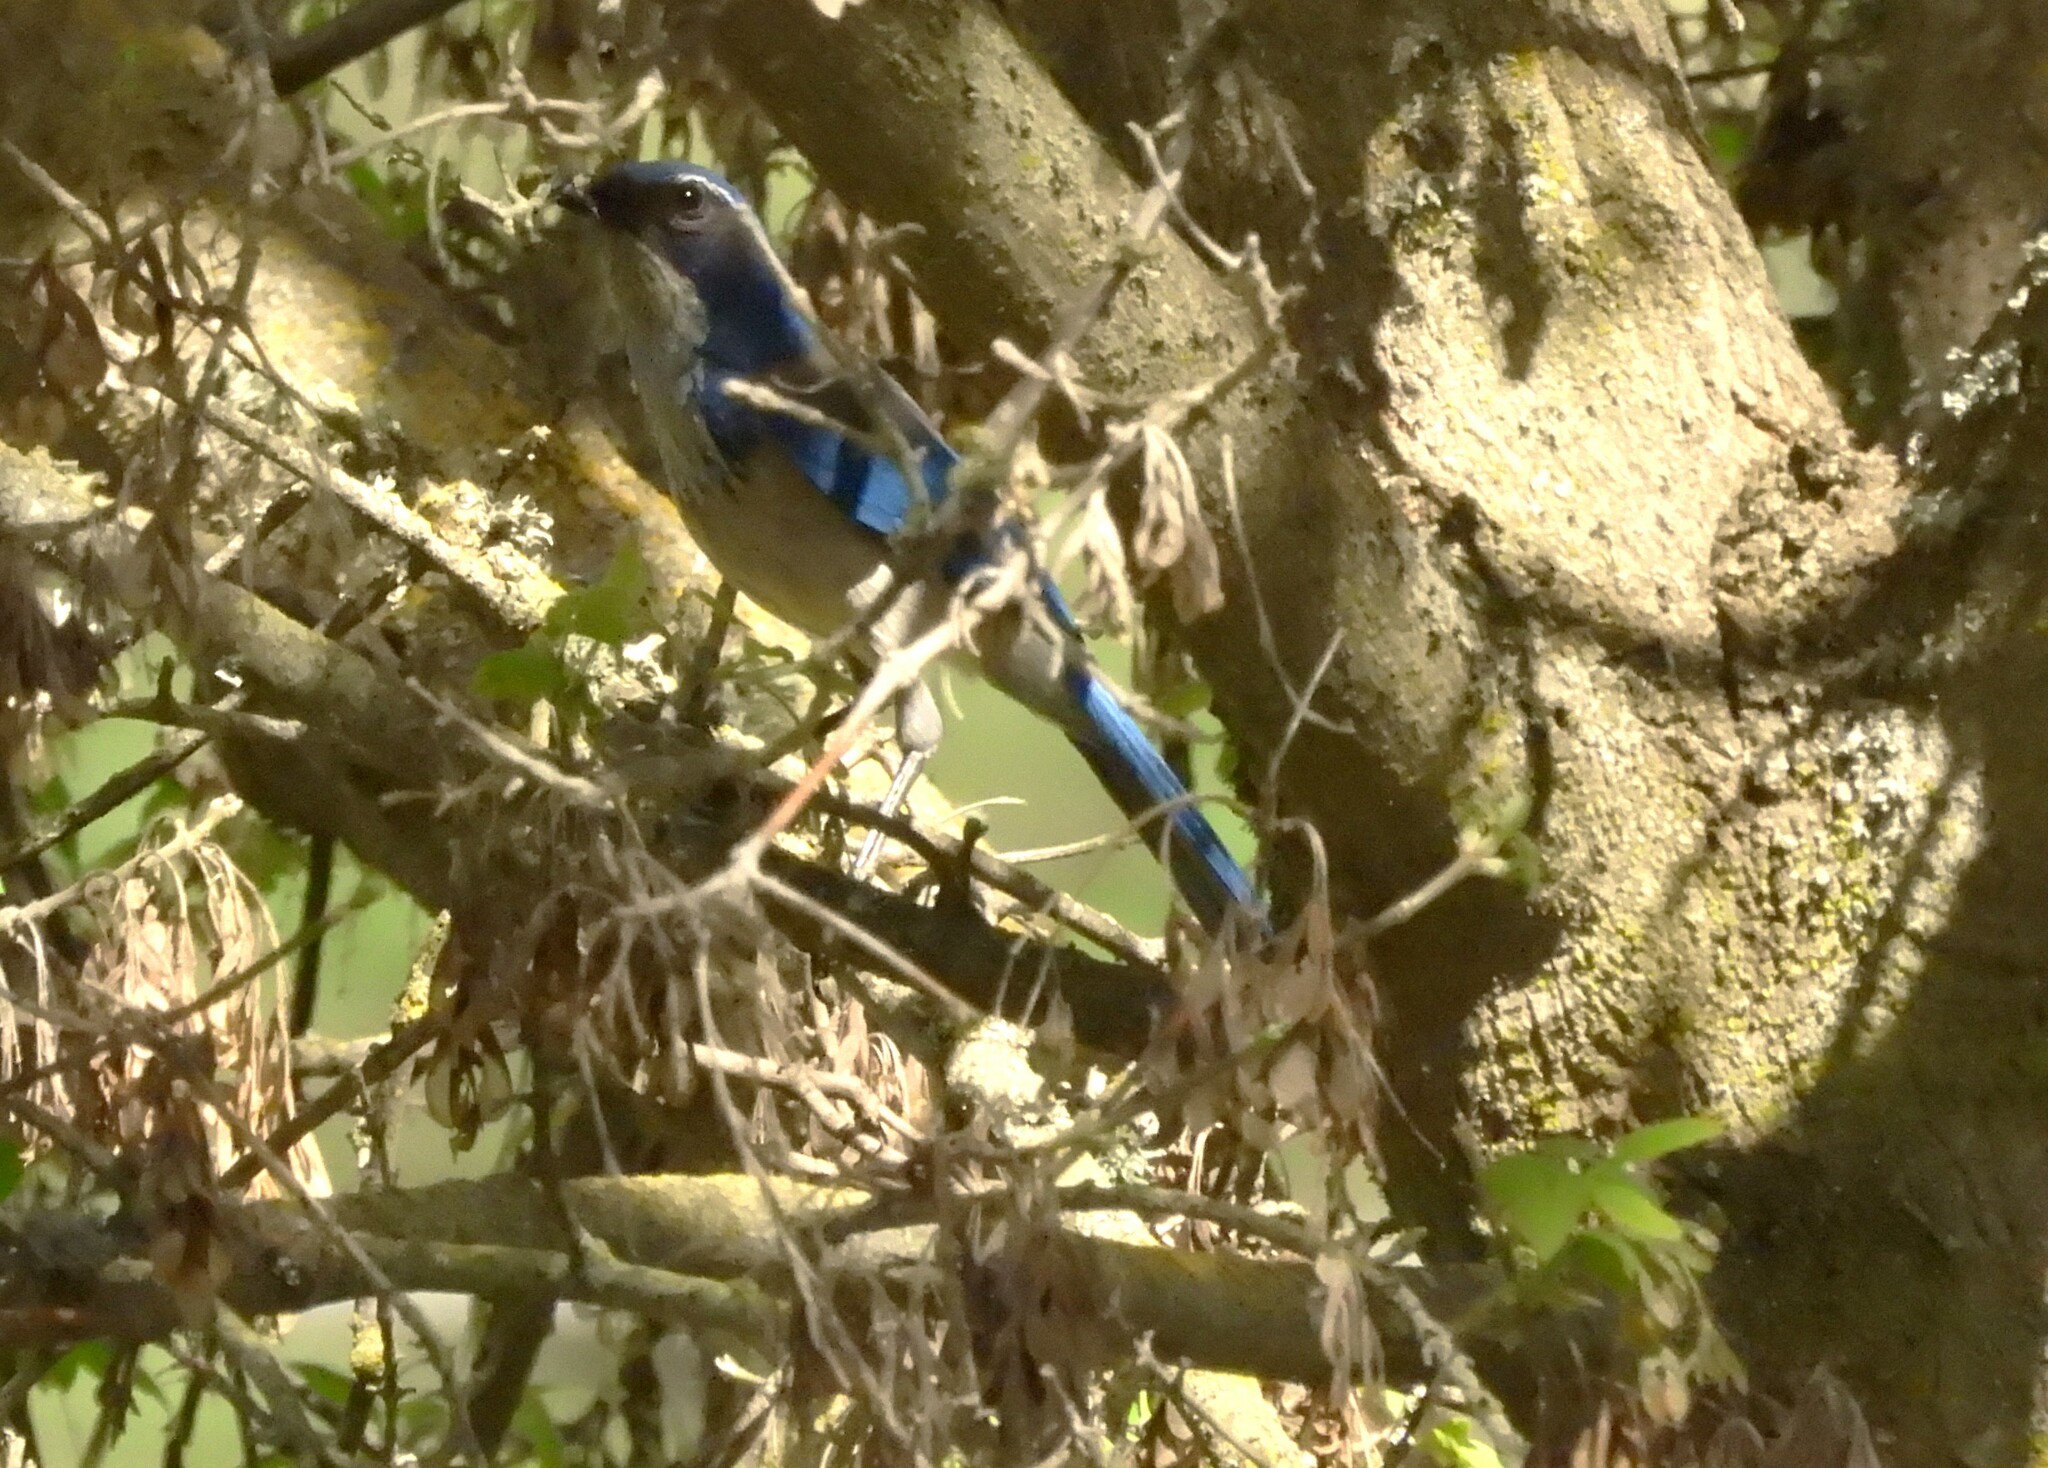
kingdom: Animalia
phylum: Chordata
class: Aves
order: Passeriformes
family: Corvidae
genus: Aphelocoma
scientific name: Aphelocoma californica
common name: California scrub-jay
